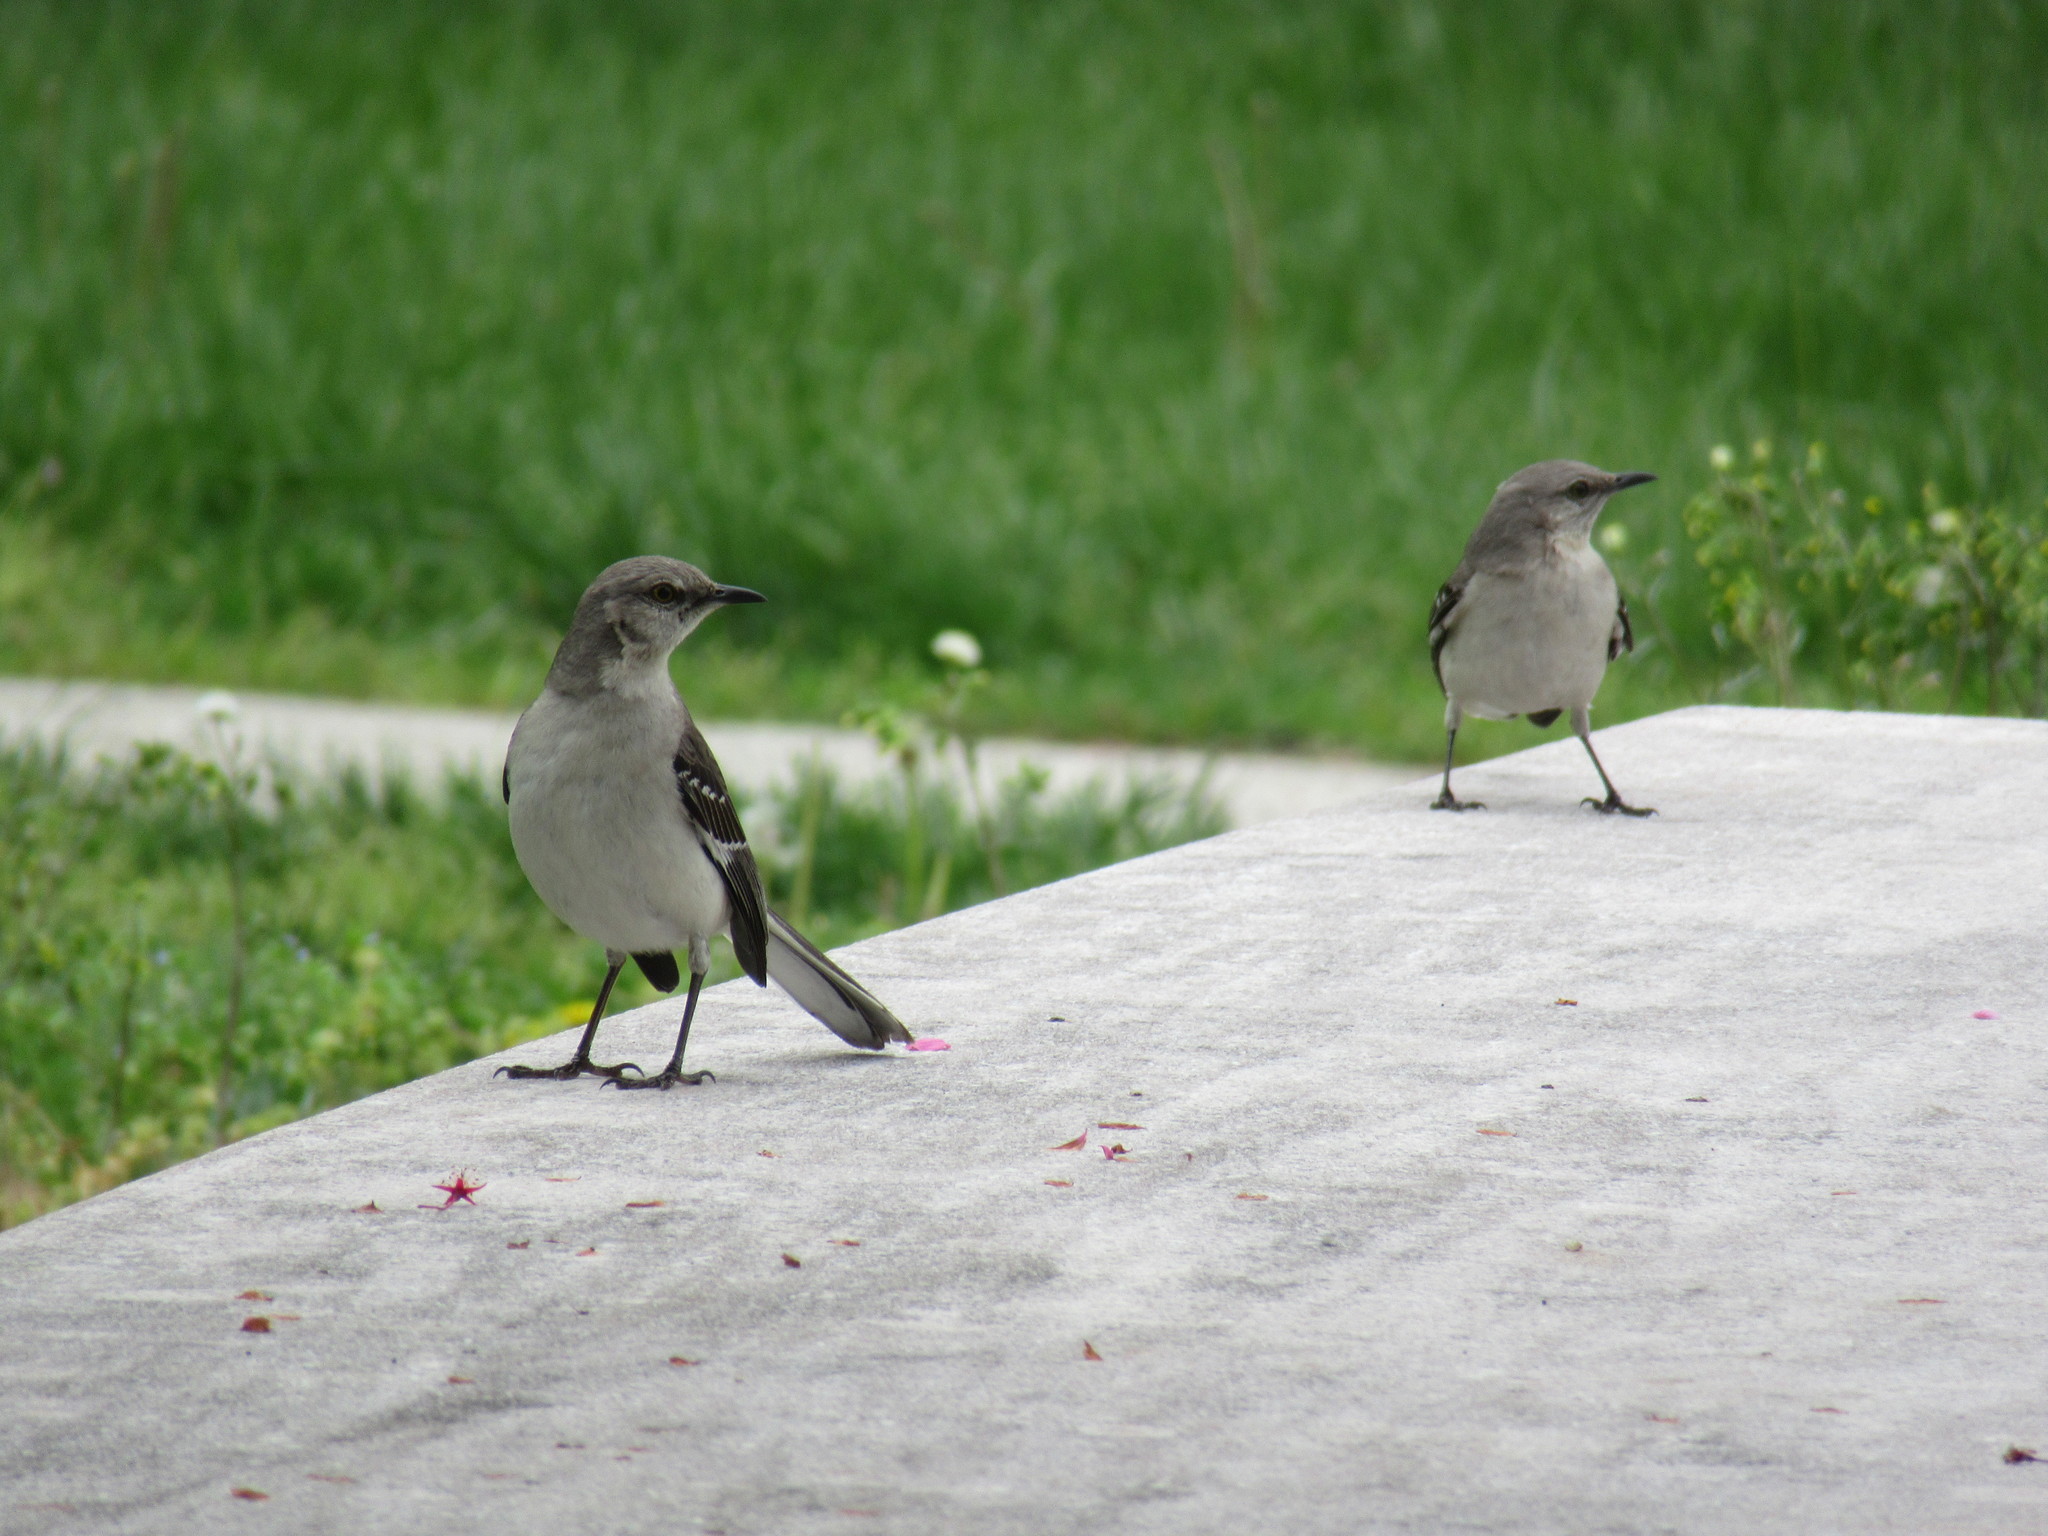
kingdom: Animalia
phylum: Chordata
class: Aves
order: Passeriformes
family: Mimidae
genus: Mimus
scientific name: Mimus polyglottos
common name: Northern mockingbird
